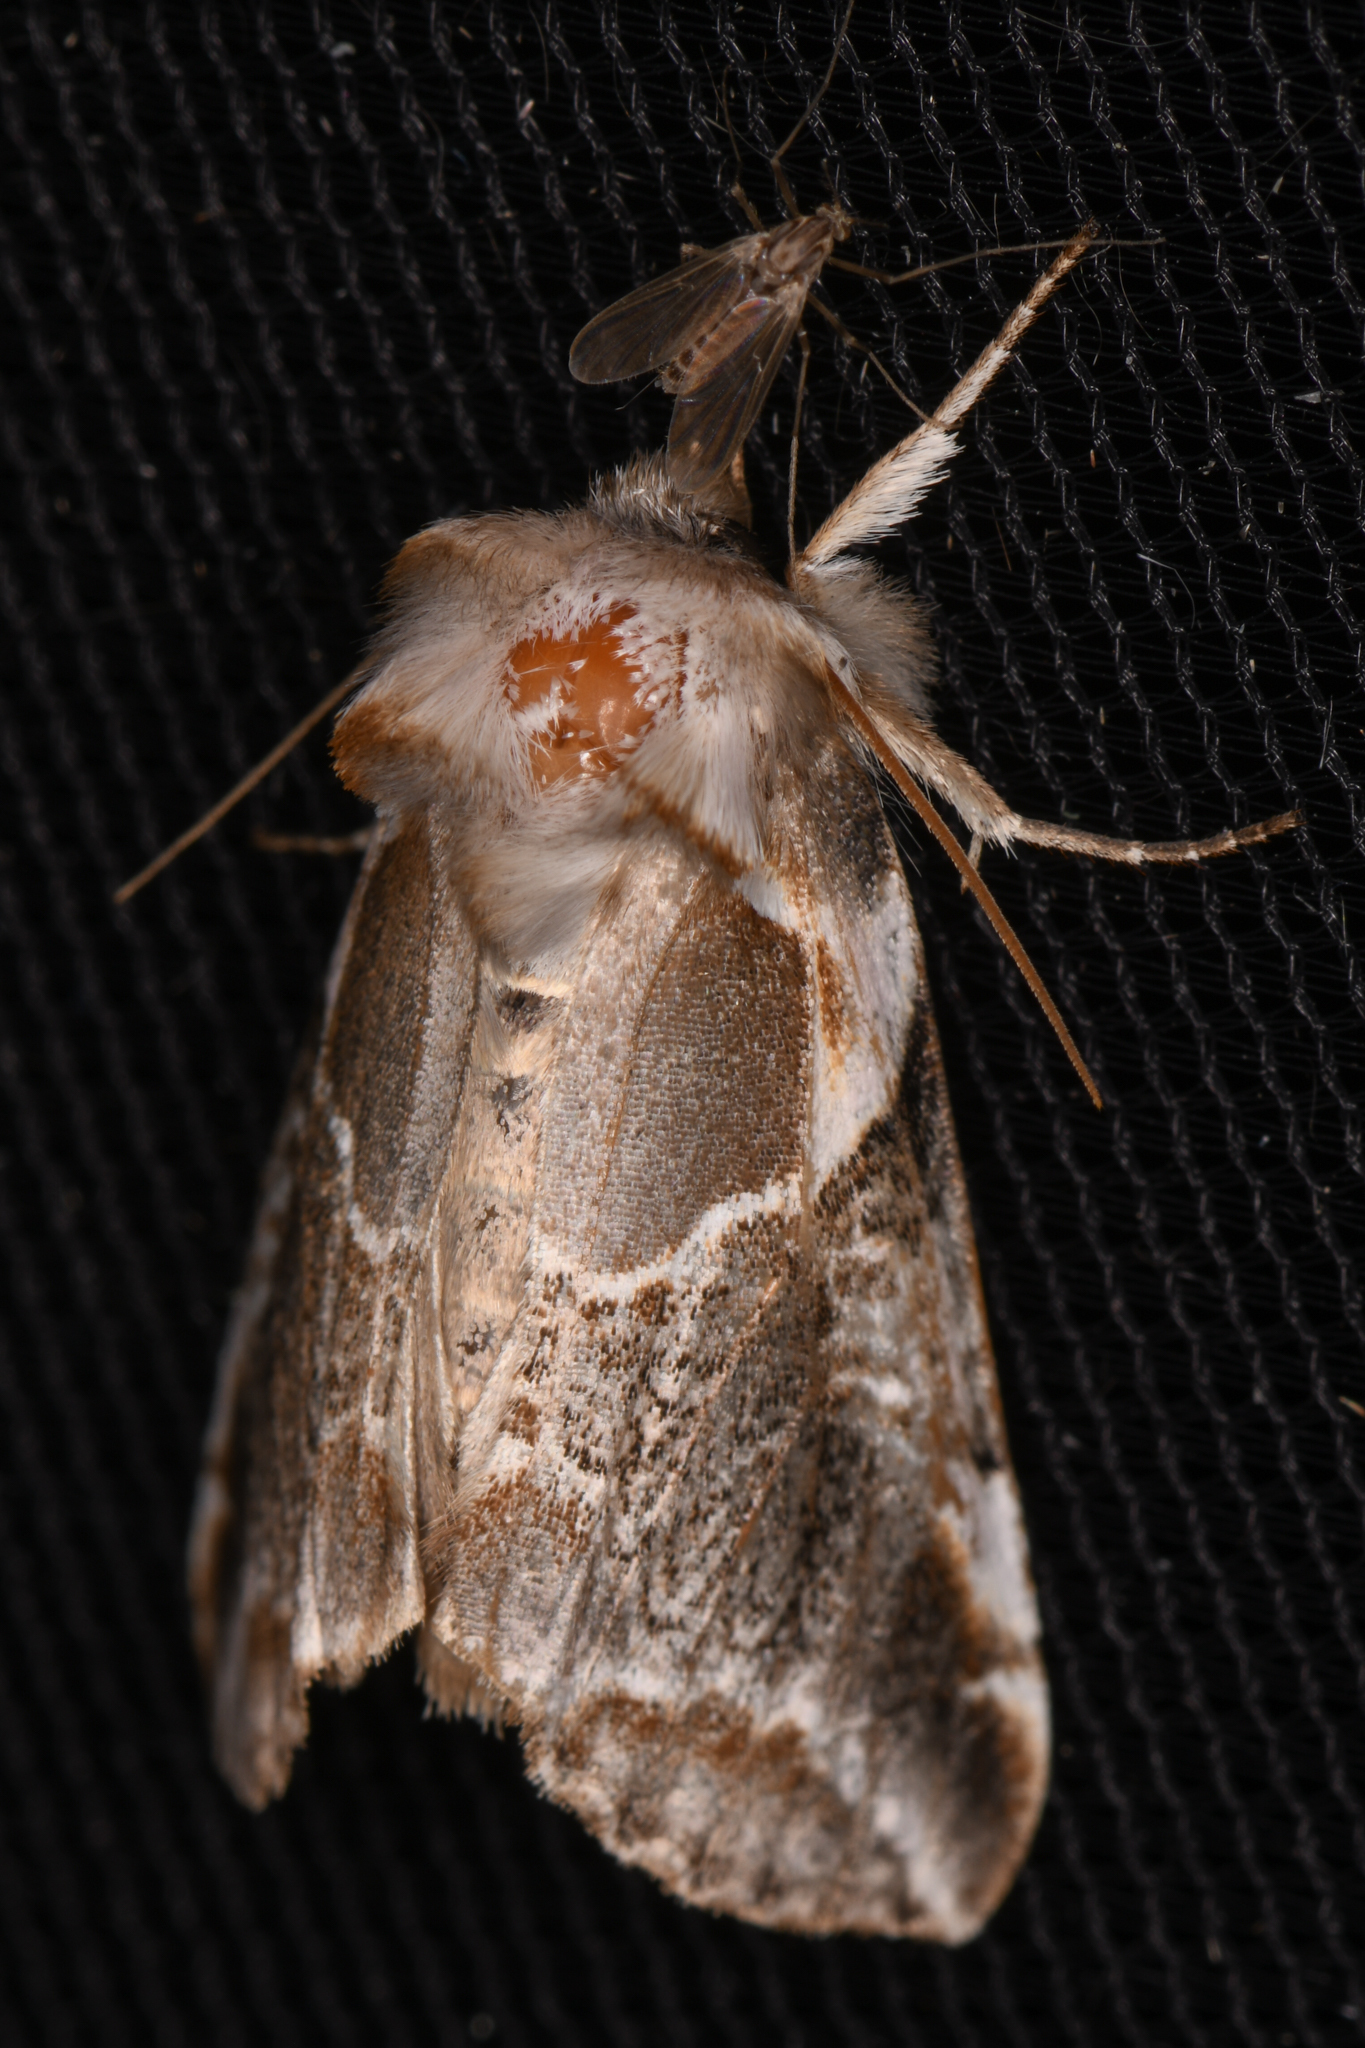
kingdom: Animalia
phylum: Arthropoda
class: Insecta
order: Lepidoptera
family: Drepanidae
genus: Habrosyne
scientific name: Habrosyne scripta
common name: Lettered habrosyne moth
